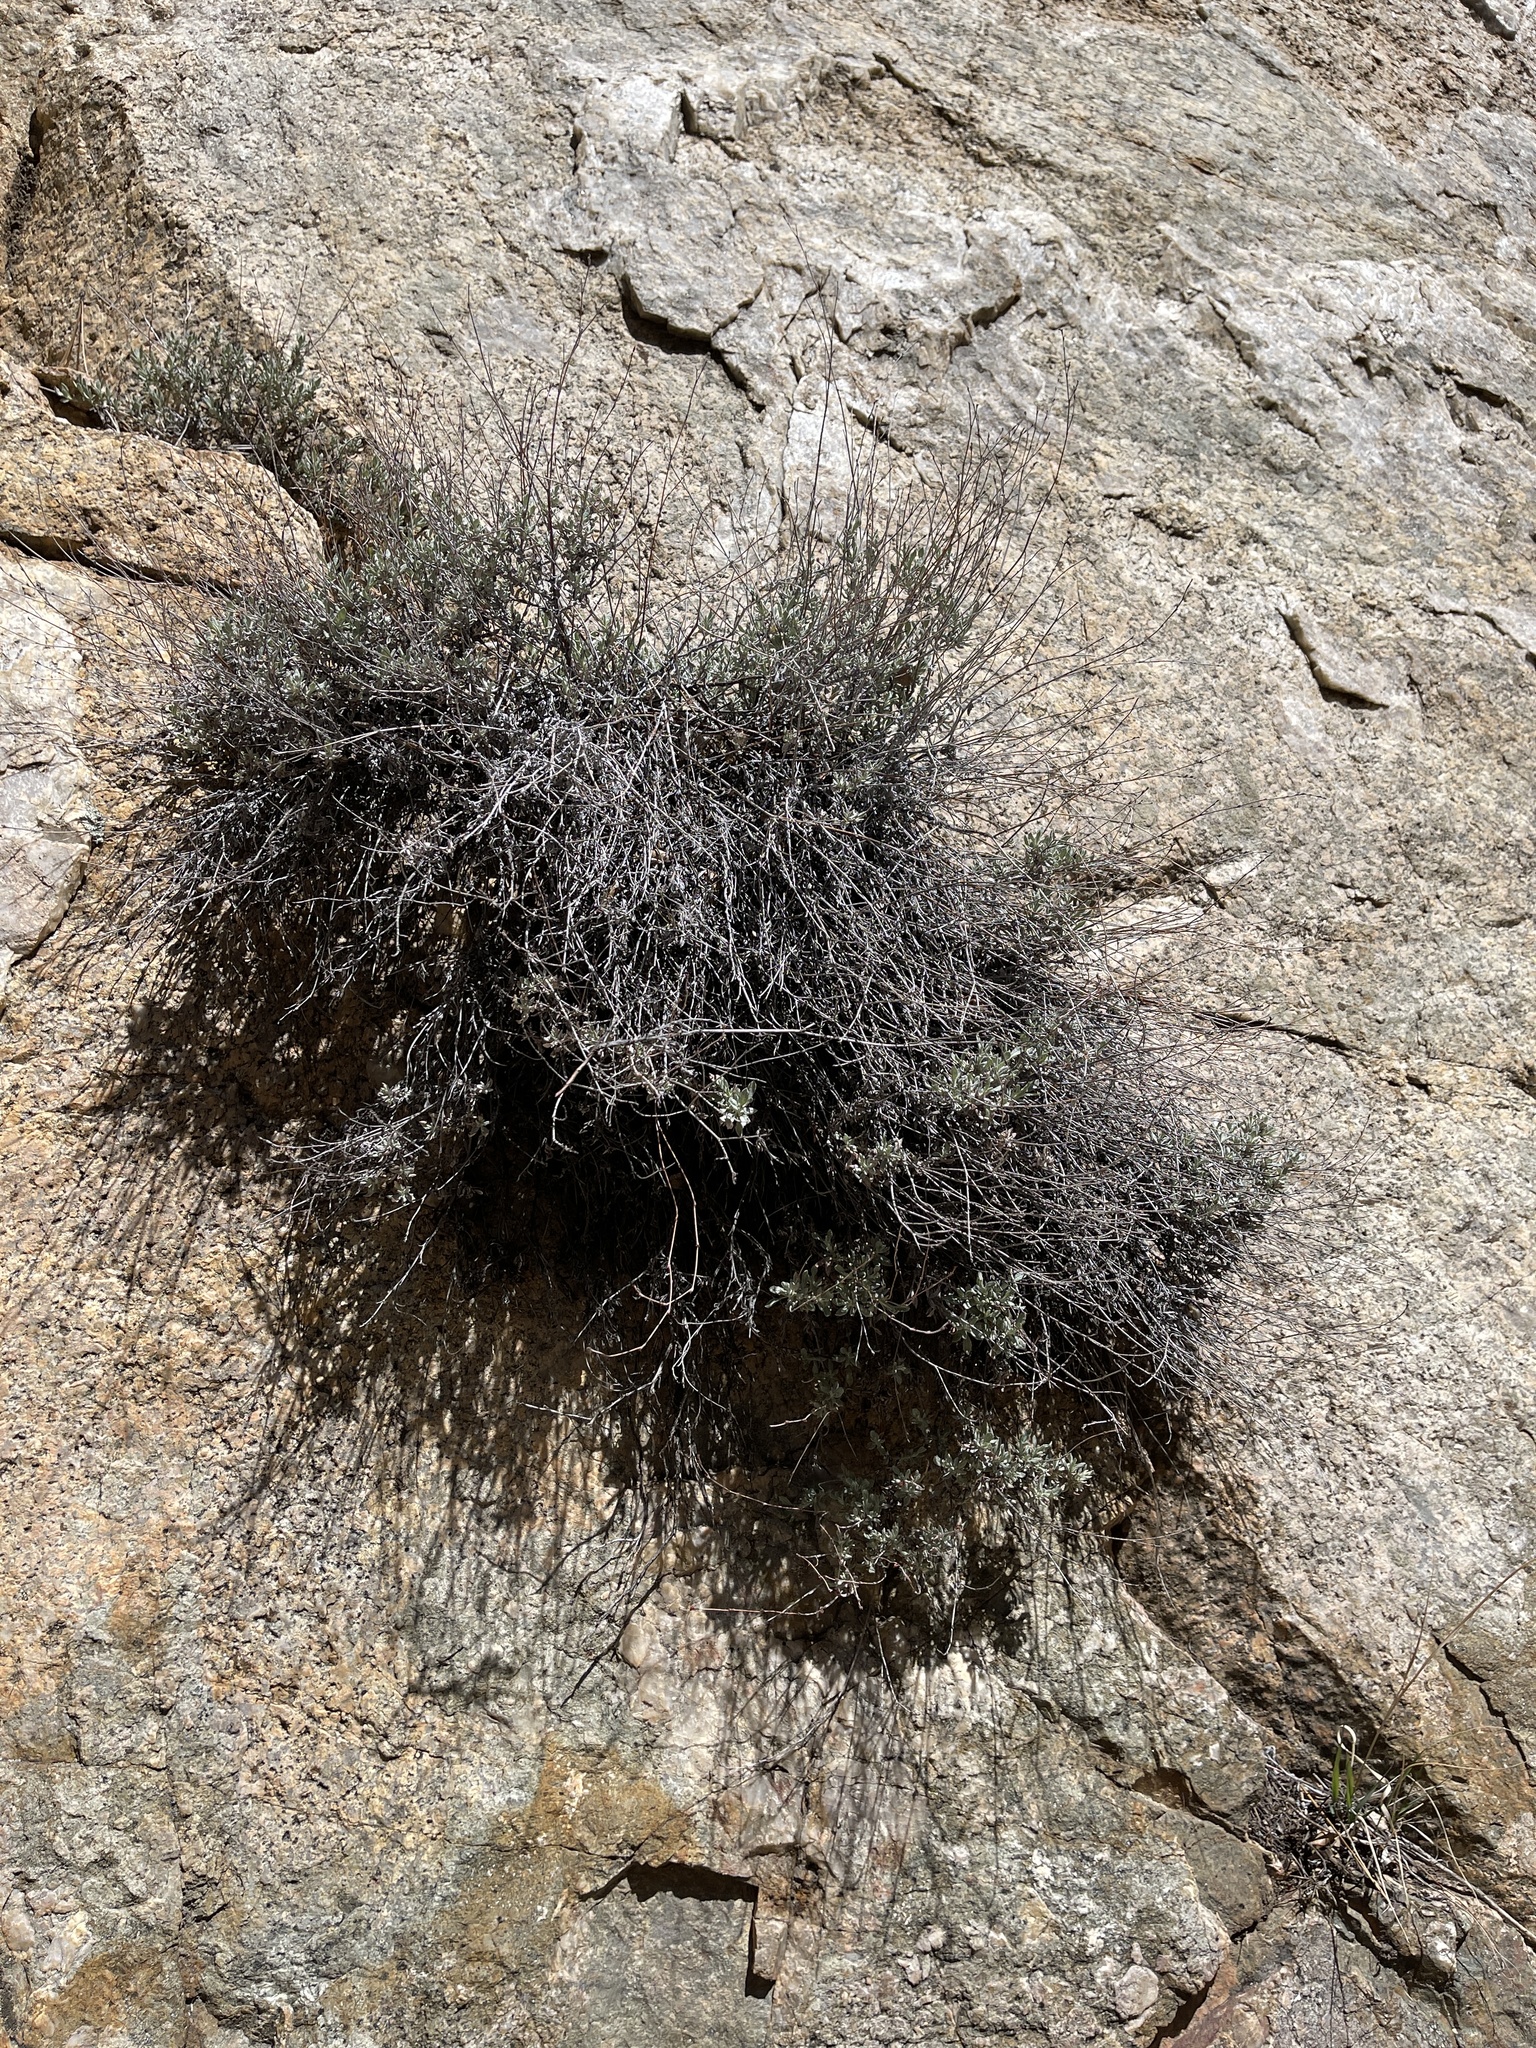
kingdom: Plantae
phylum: Tracheophyta
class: Magnoliopsida
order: Asterales
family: Asteraceae
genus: Artemisia
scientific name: Artemisia nova
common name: Black-sage
